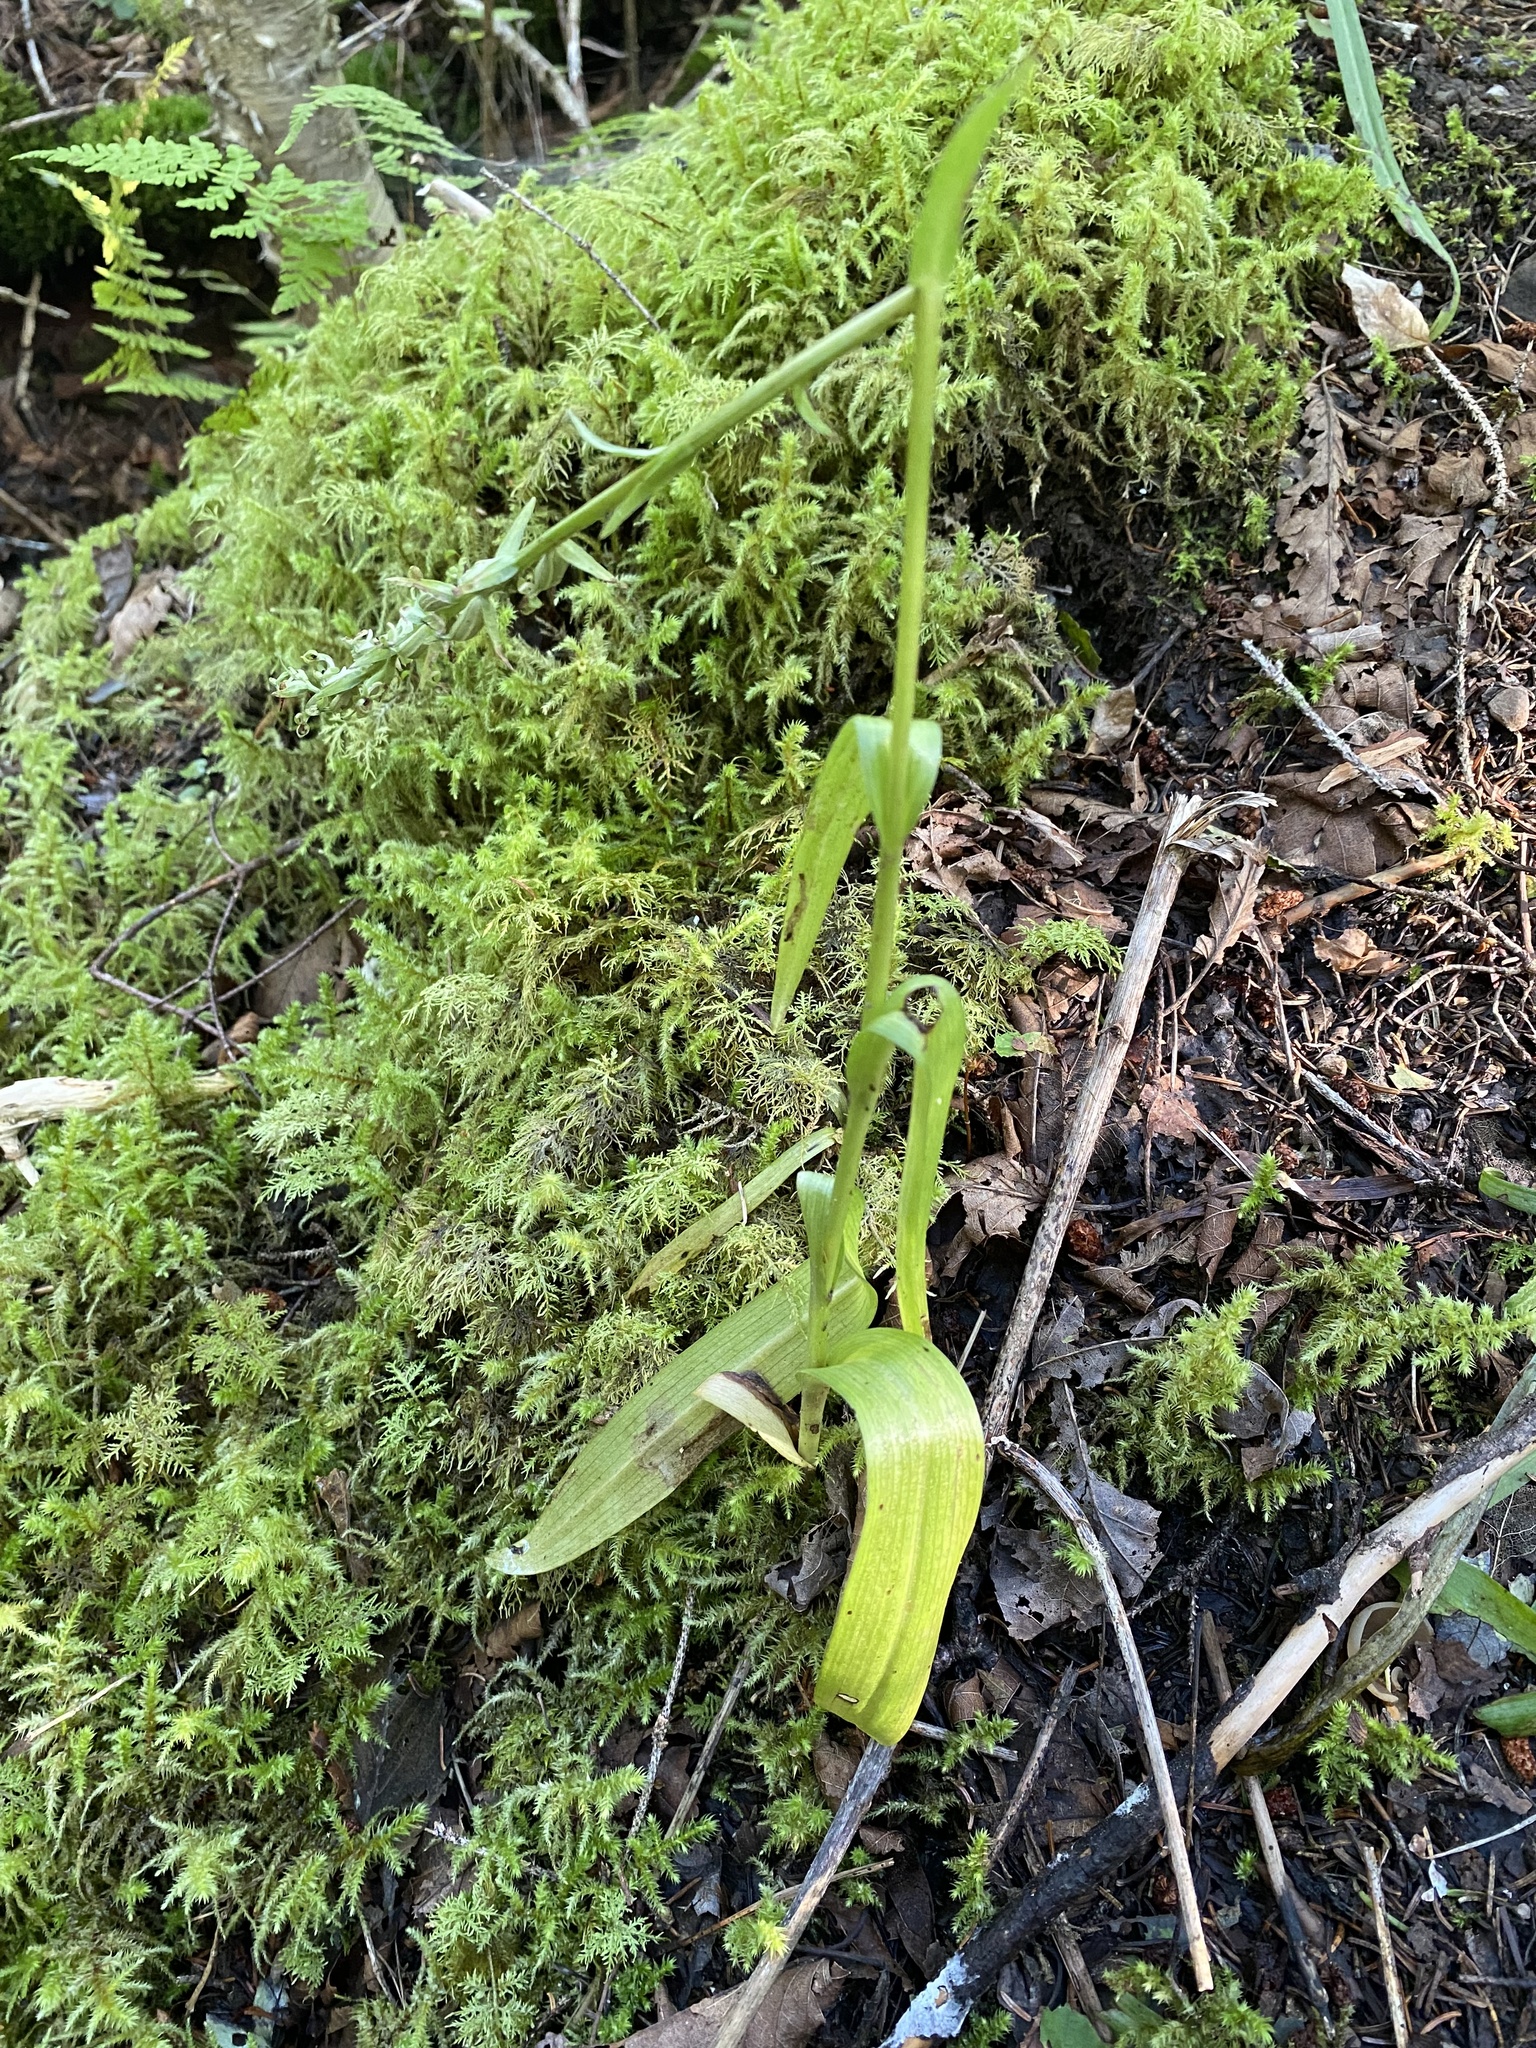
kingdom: Plantae
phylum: Tracheophyta
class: Liliopsida
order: Asparagales
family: Orchidaceae
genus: Platanthera
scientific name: Platanthera aquilonis
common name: Northern green orchid
